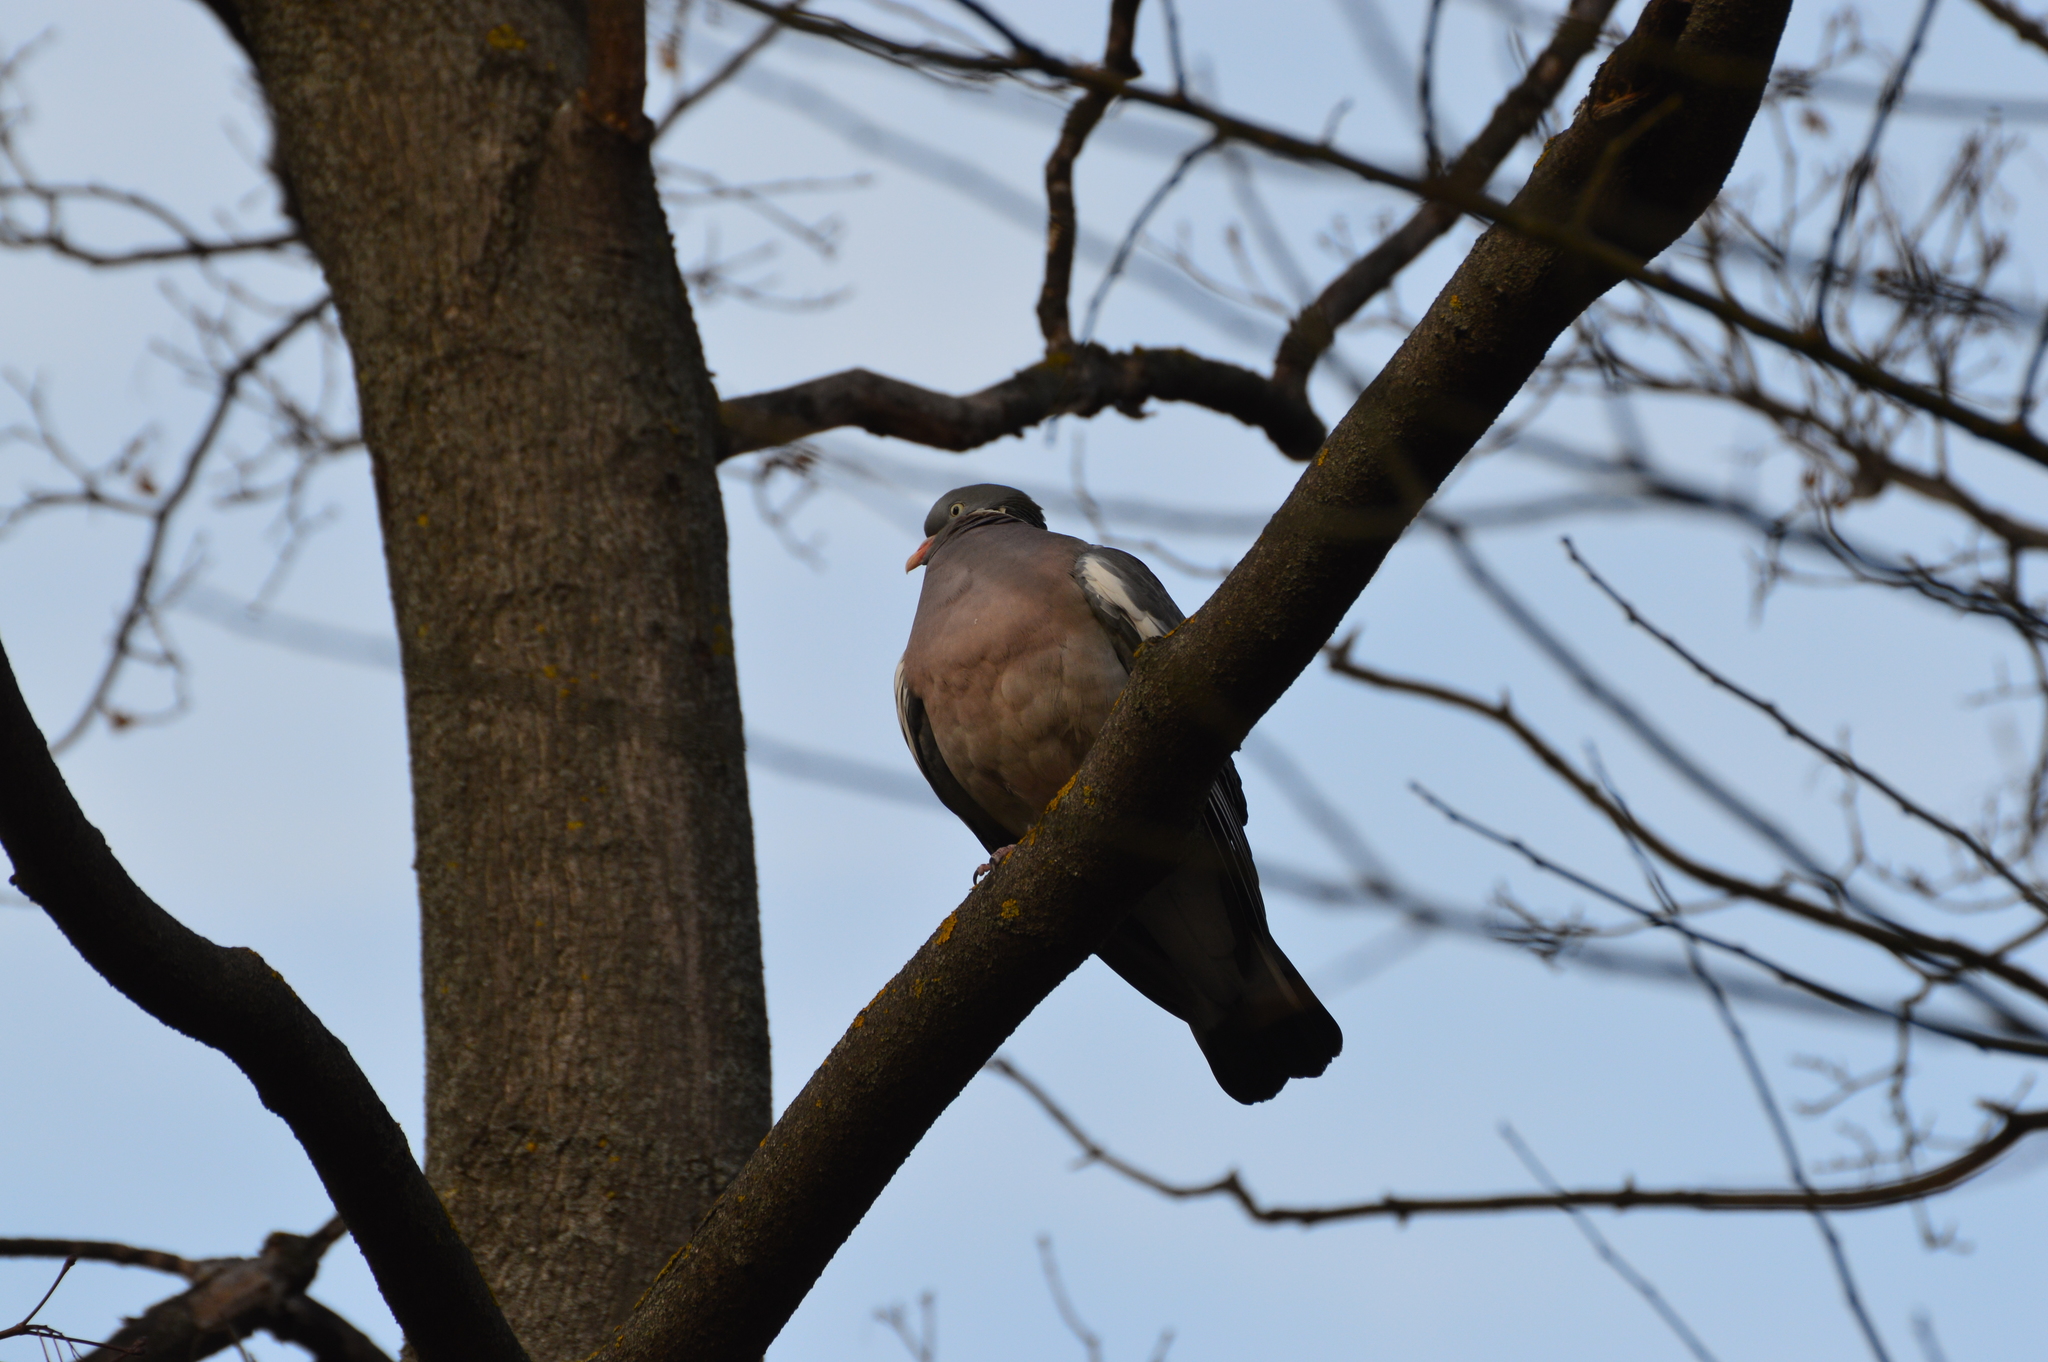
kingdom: Animalia
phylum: Chordata
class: Aves
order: Columbiformes
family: Columbidae
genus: Columba
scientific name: Columba palumbus
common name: Common wood pigeon
